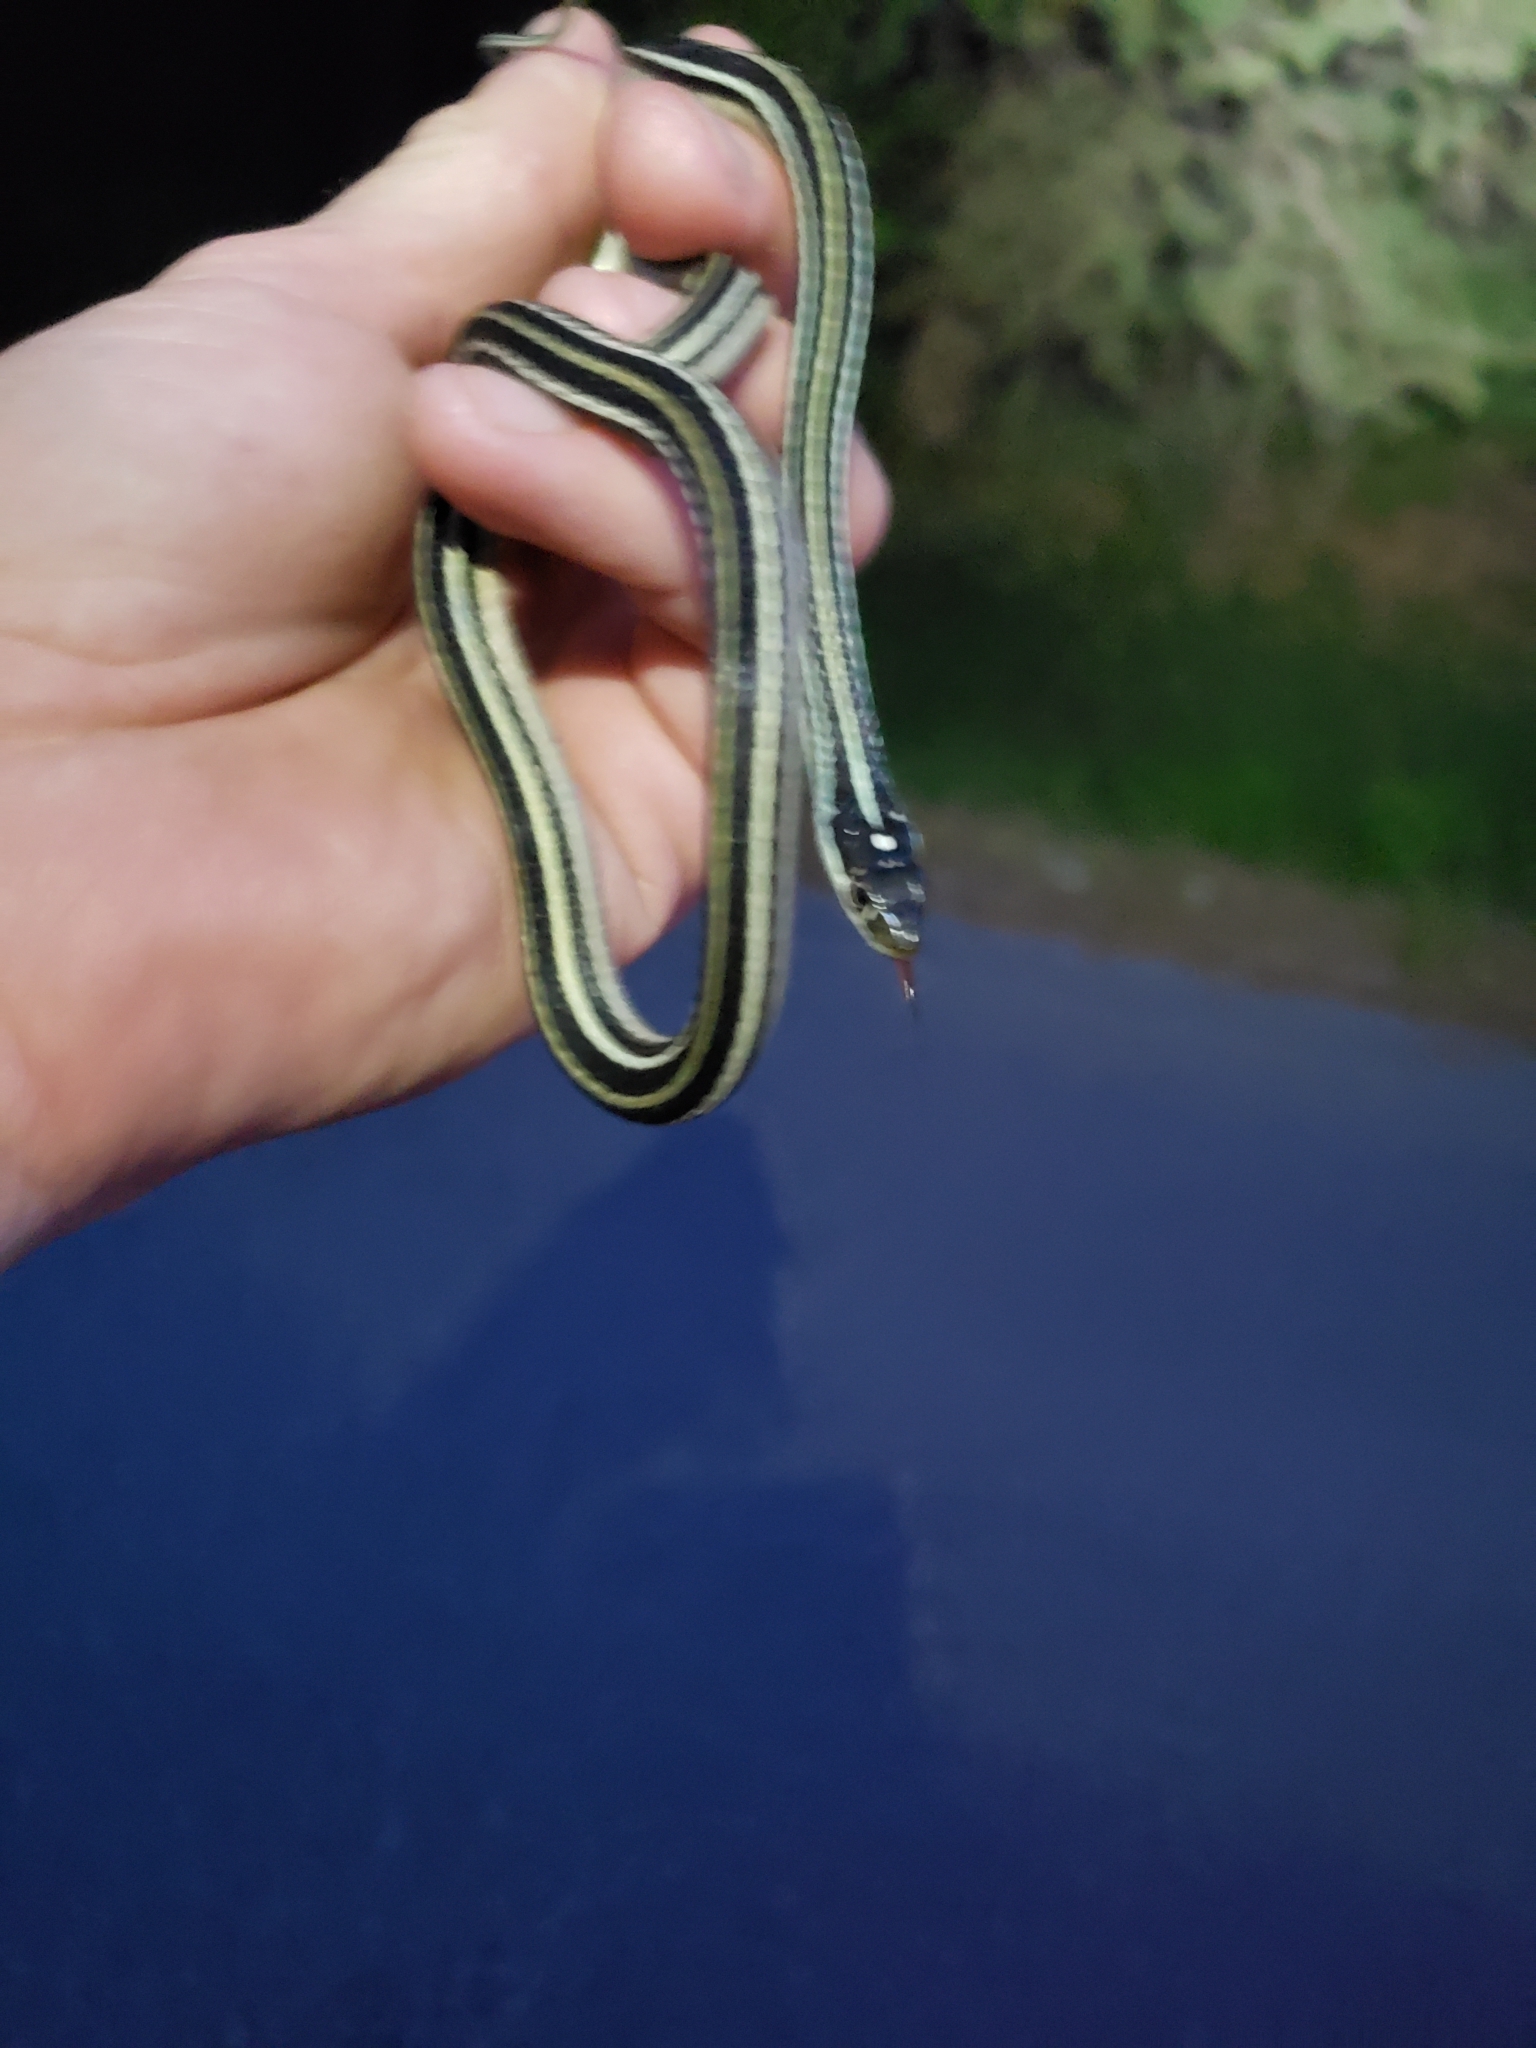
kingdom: Animalia
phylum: Chordata
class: Squamata
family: Colubridae
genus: Thamnophis
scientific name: Thamnophis proximus
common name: Western ribbon snake
